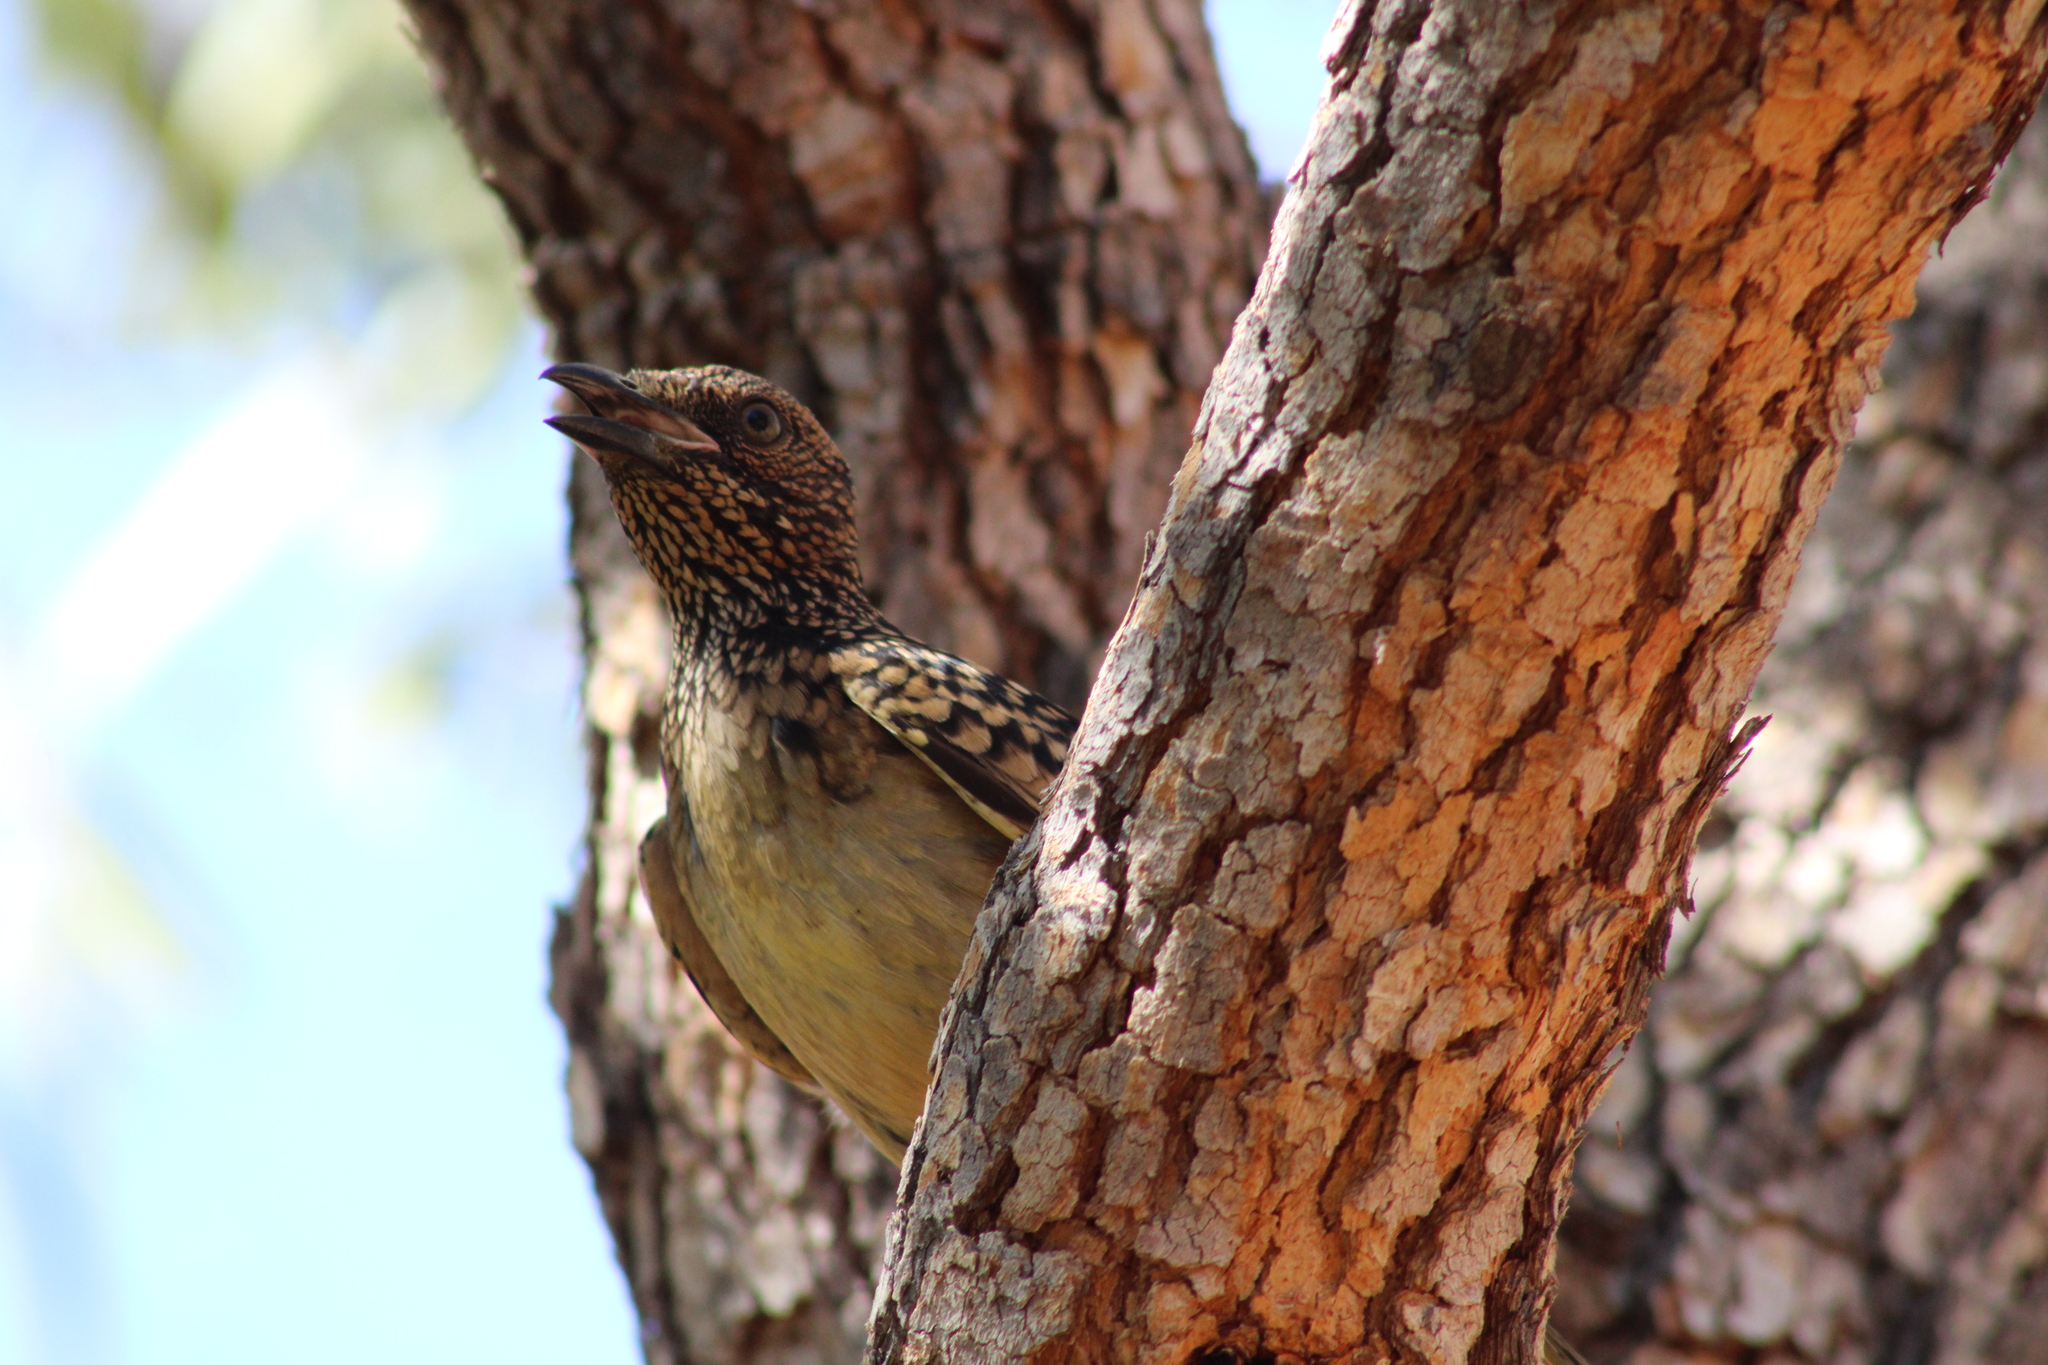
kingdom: Animalia
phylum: Chordata
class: Aves
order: Passeriformes
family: Ptilonorhynchidae
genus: Chlamydera
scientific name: Chlamydera guttata
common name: Western bowerbird
